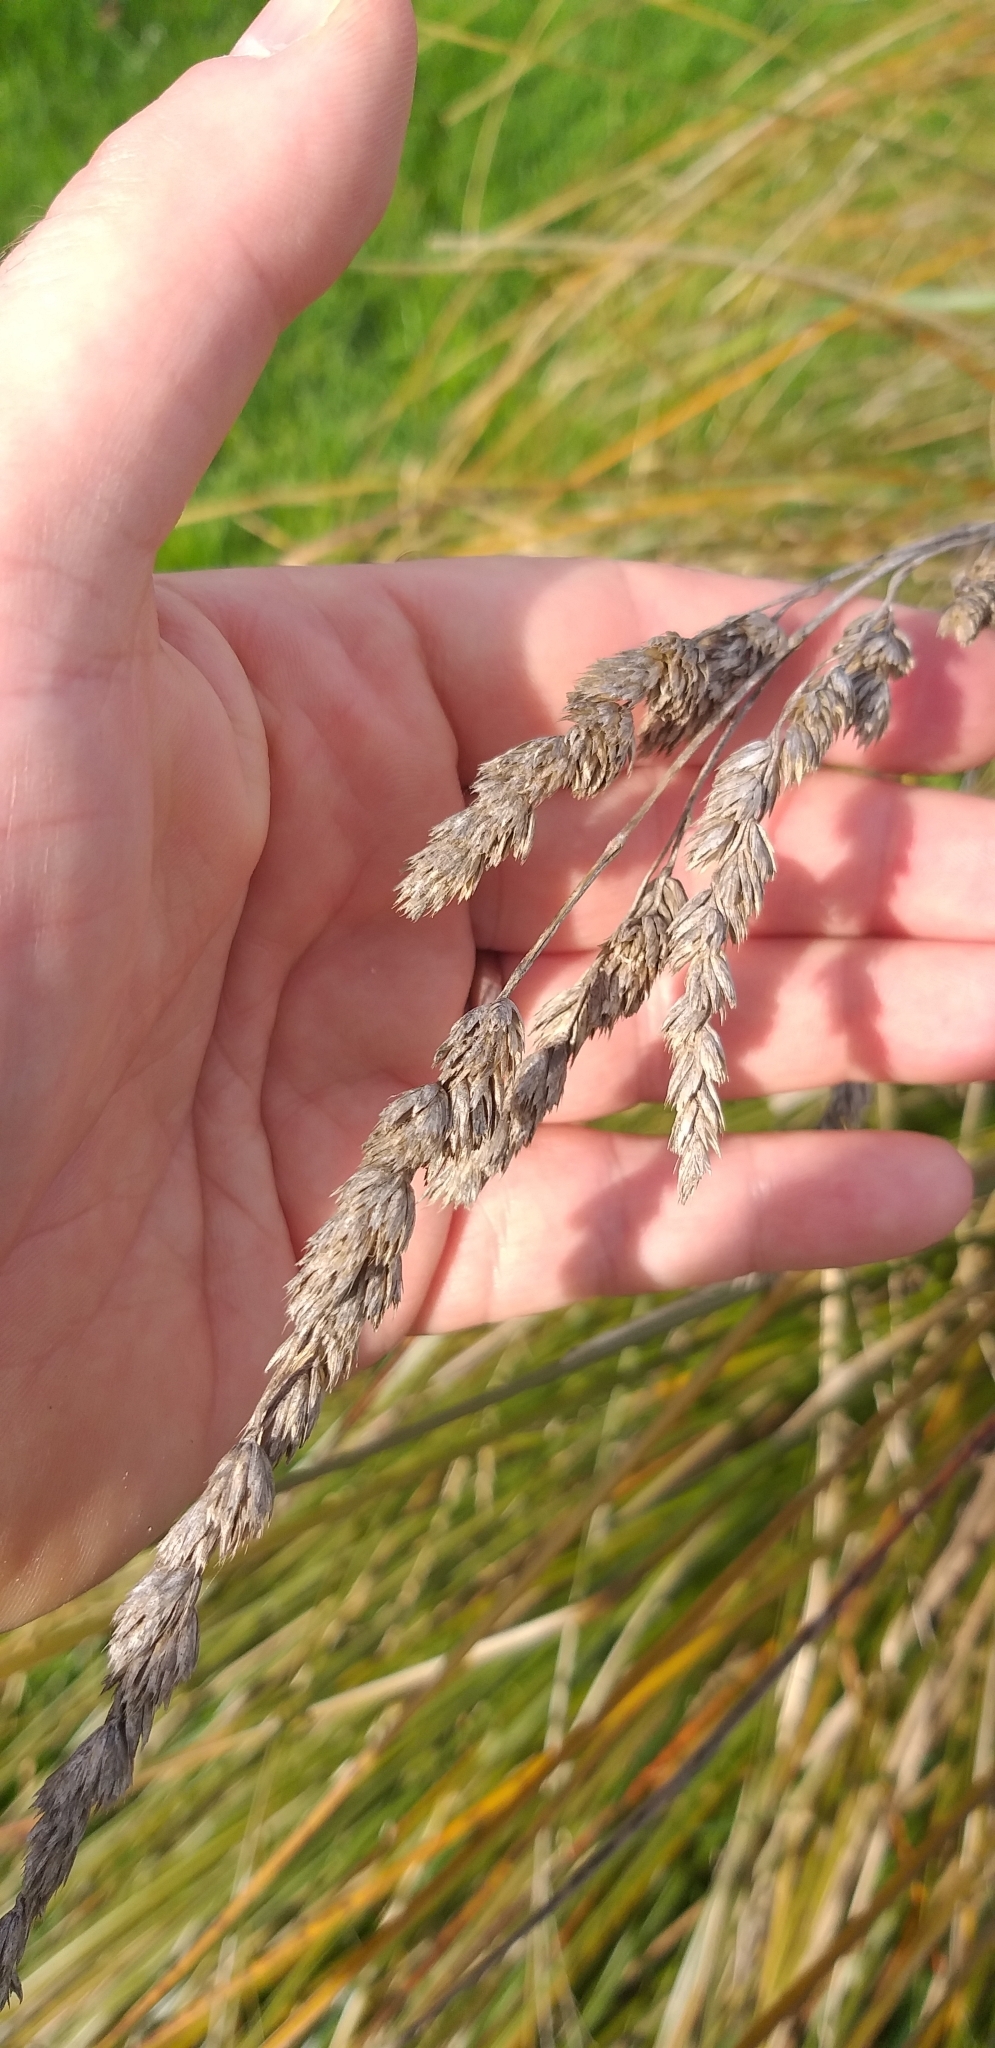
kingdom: Plantae
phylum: Tracheophyta
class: Liliopsida
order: Poales
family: Poaceae
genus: Dactylis
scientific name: Dactylis glomerata
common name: Orchardgrass
